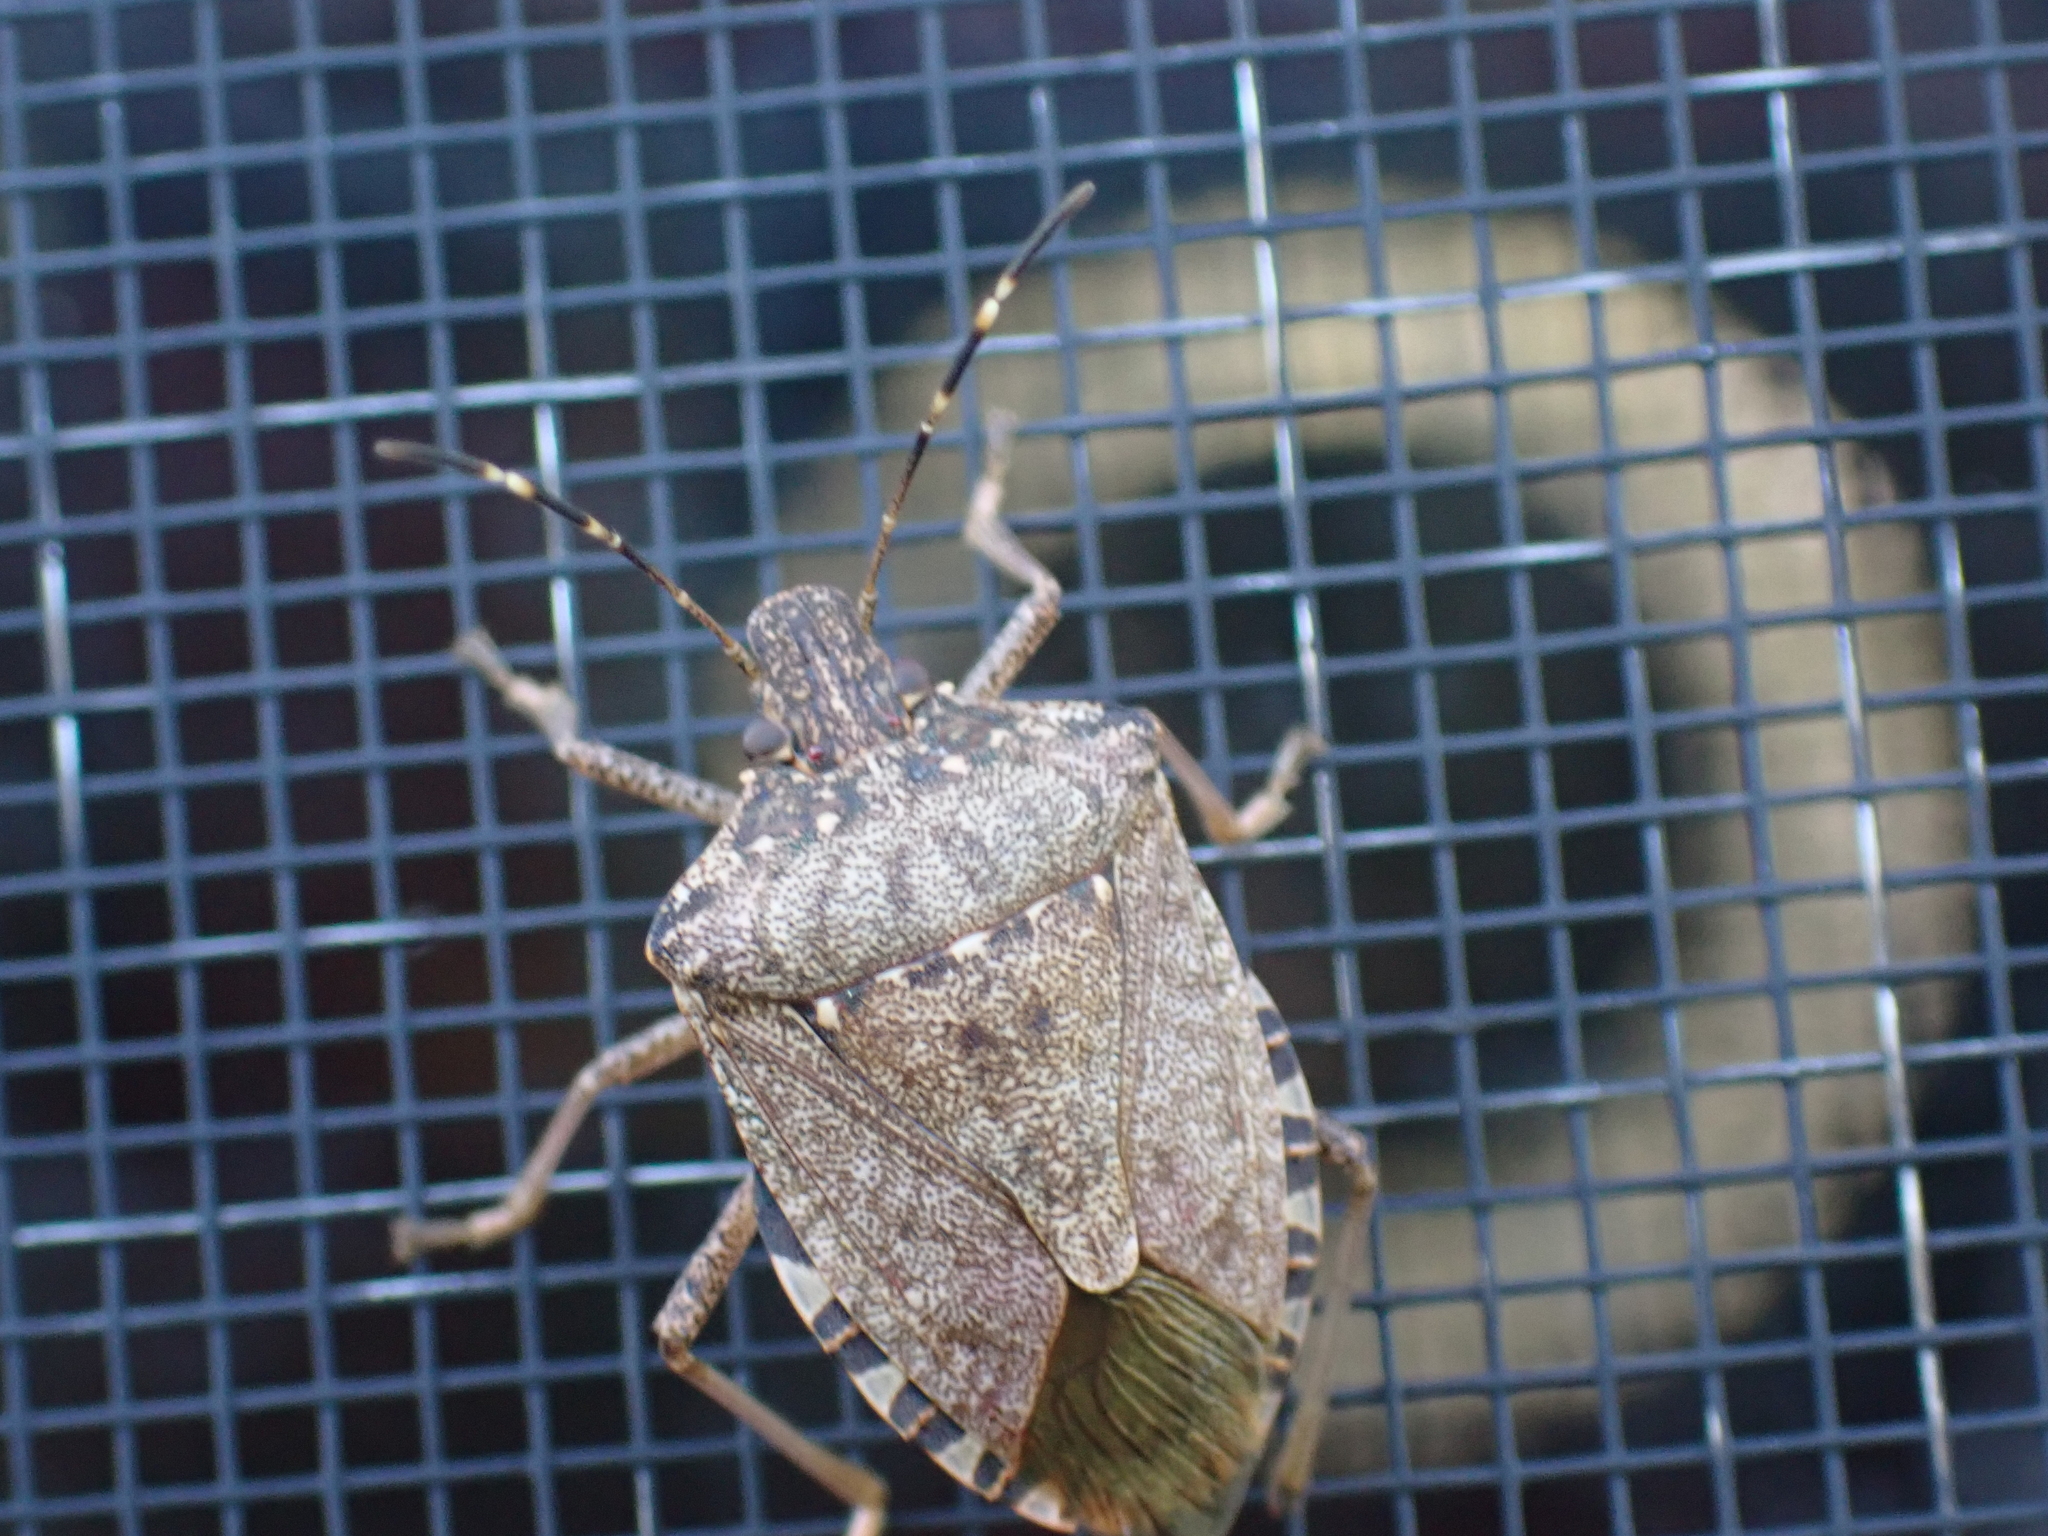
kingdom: Animalia
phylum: Arthropoda
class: Insecta
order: Hemiptera
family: Pentatomidae
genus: Halyomorpha
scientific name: Halyomorpha halys
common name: Brown marmorated stink bug
